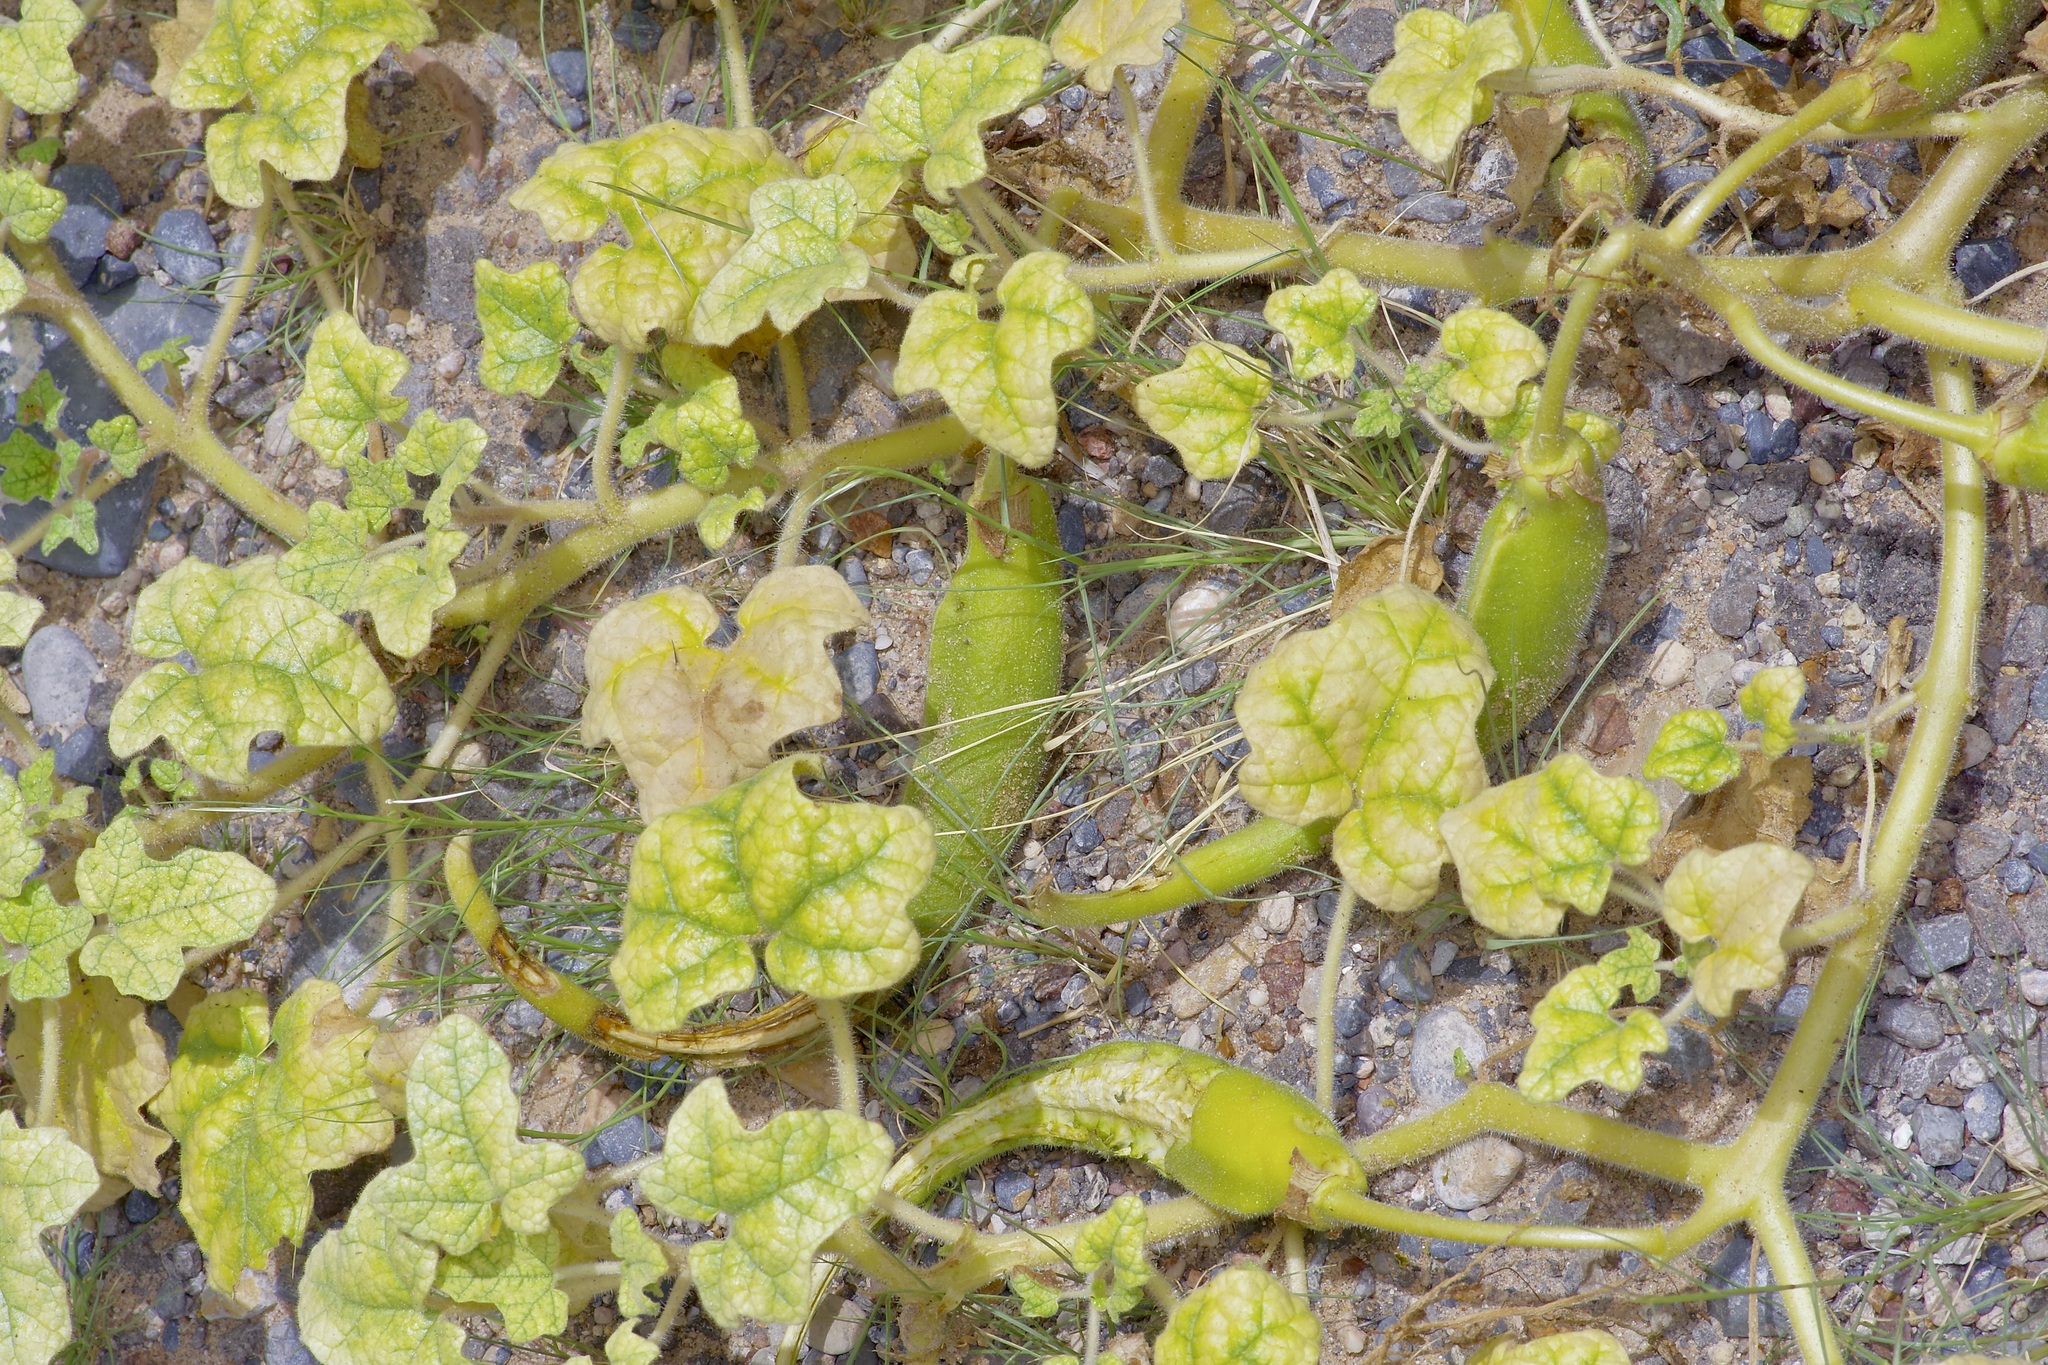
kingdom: Plantae
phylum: Tracheophyta
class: Magnoliopsida
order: Lamiales
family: Martyniaceae
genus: Proboscidea
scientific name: Proboscidea althaeifolia
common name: Desert unicorn-plant
